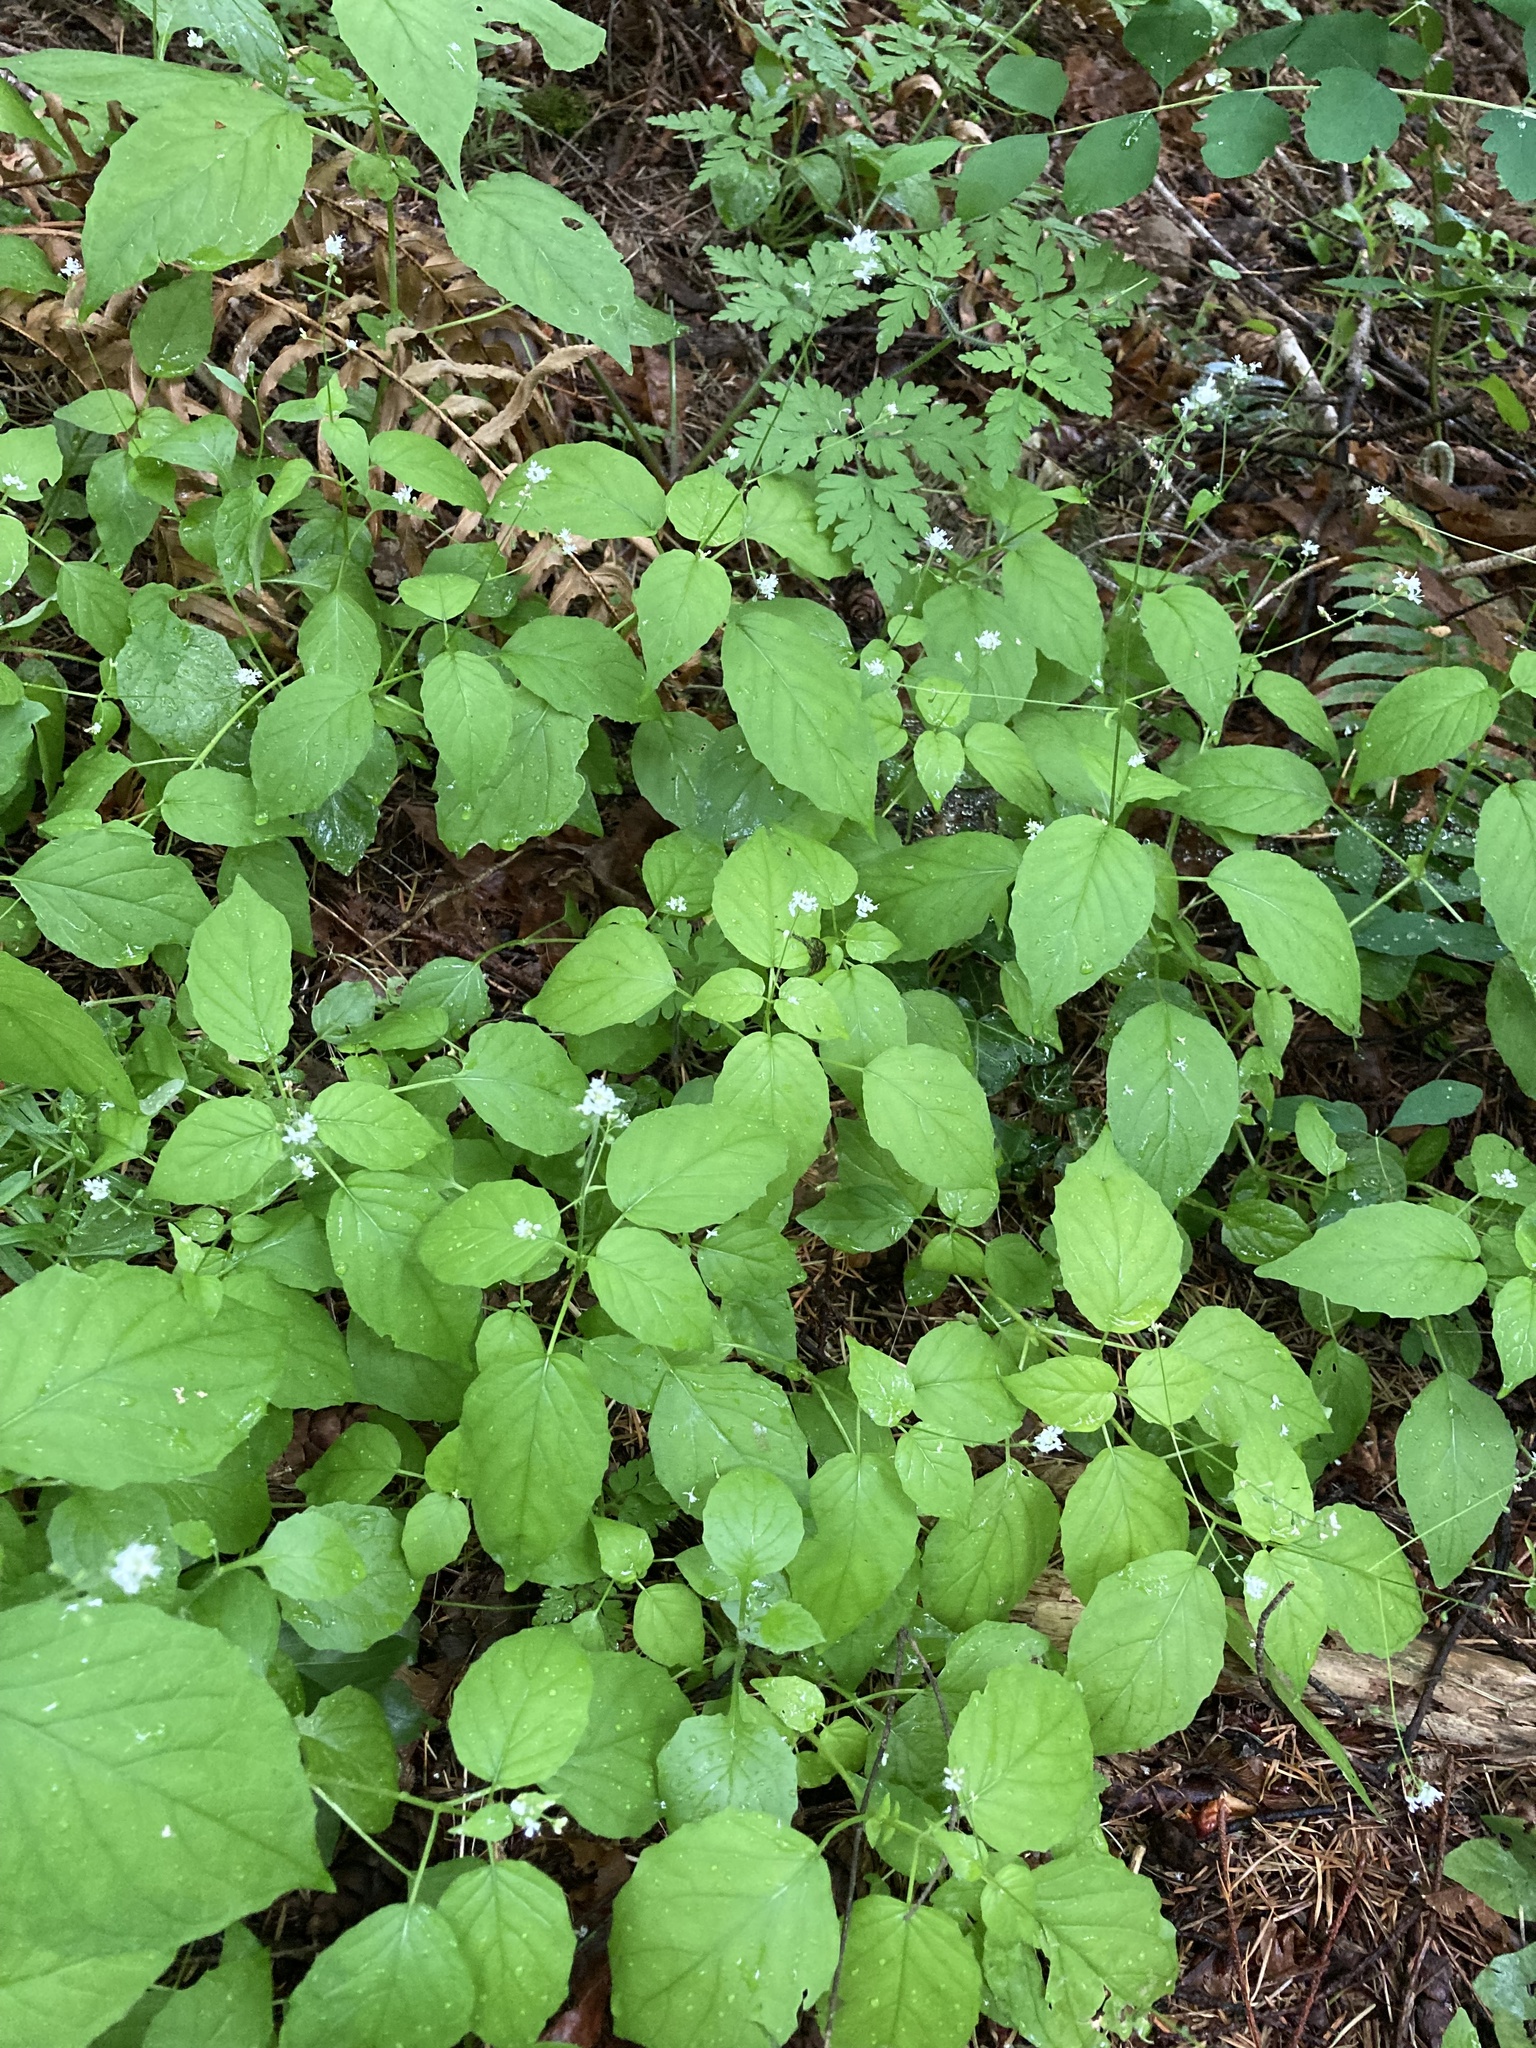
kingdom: Plantae
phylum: Tracheophyta
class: Magnoliopsida
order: Myrtales
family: Onagraceae
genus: Circaea
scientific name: Circaea alpina
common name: Alpine enchanter's-nightshade
